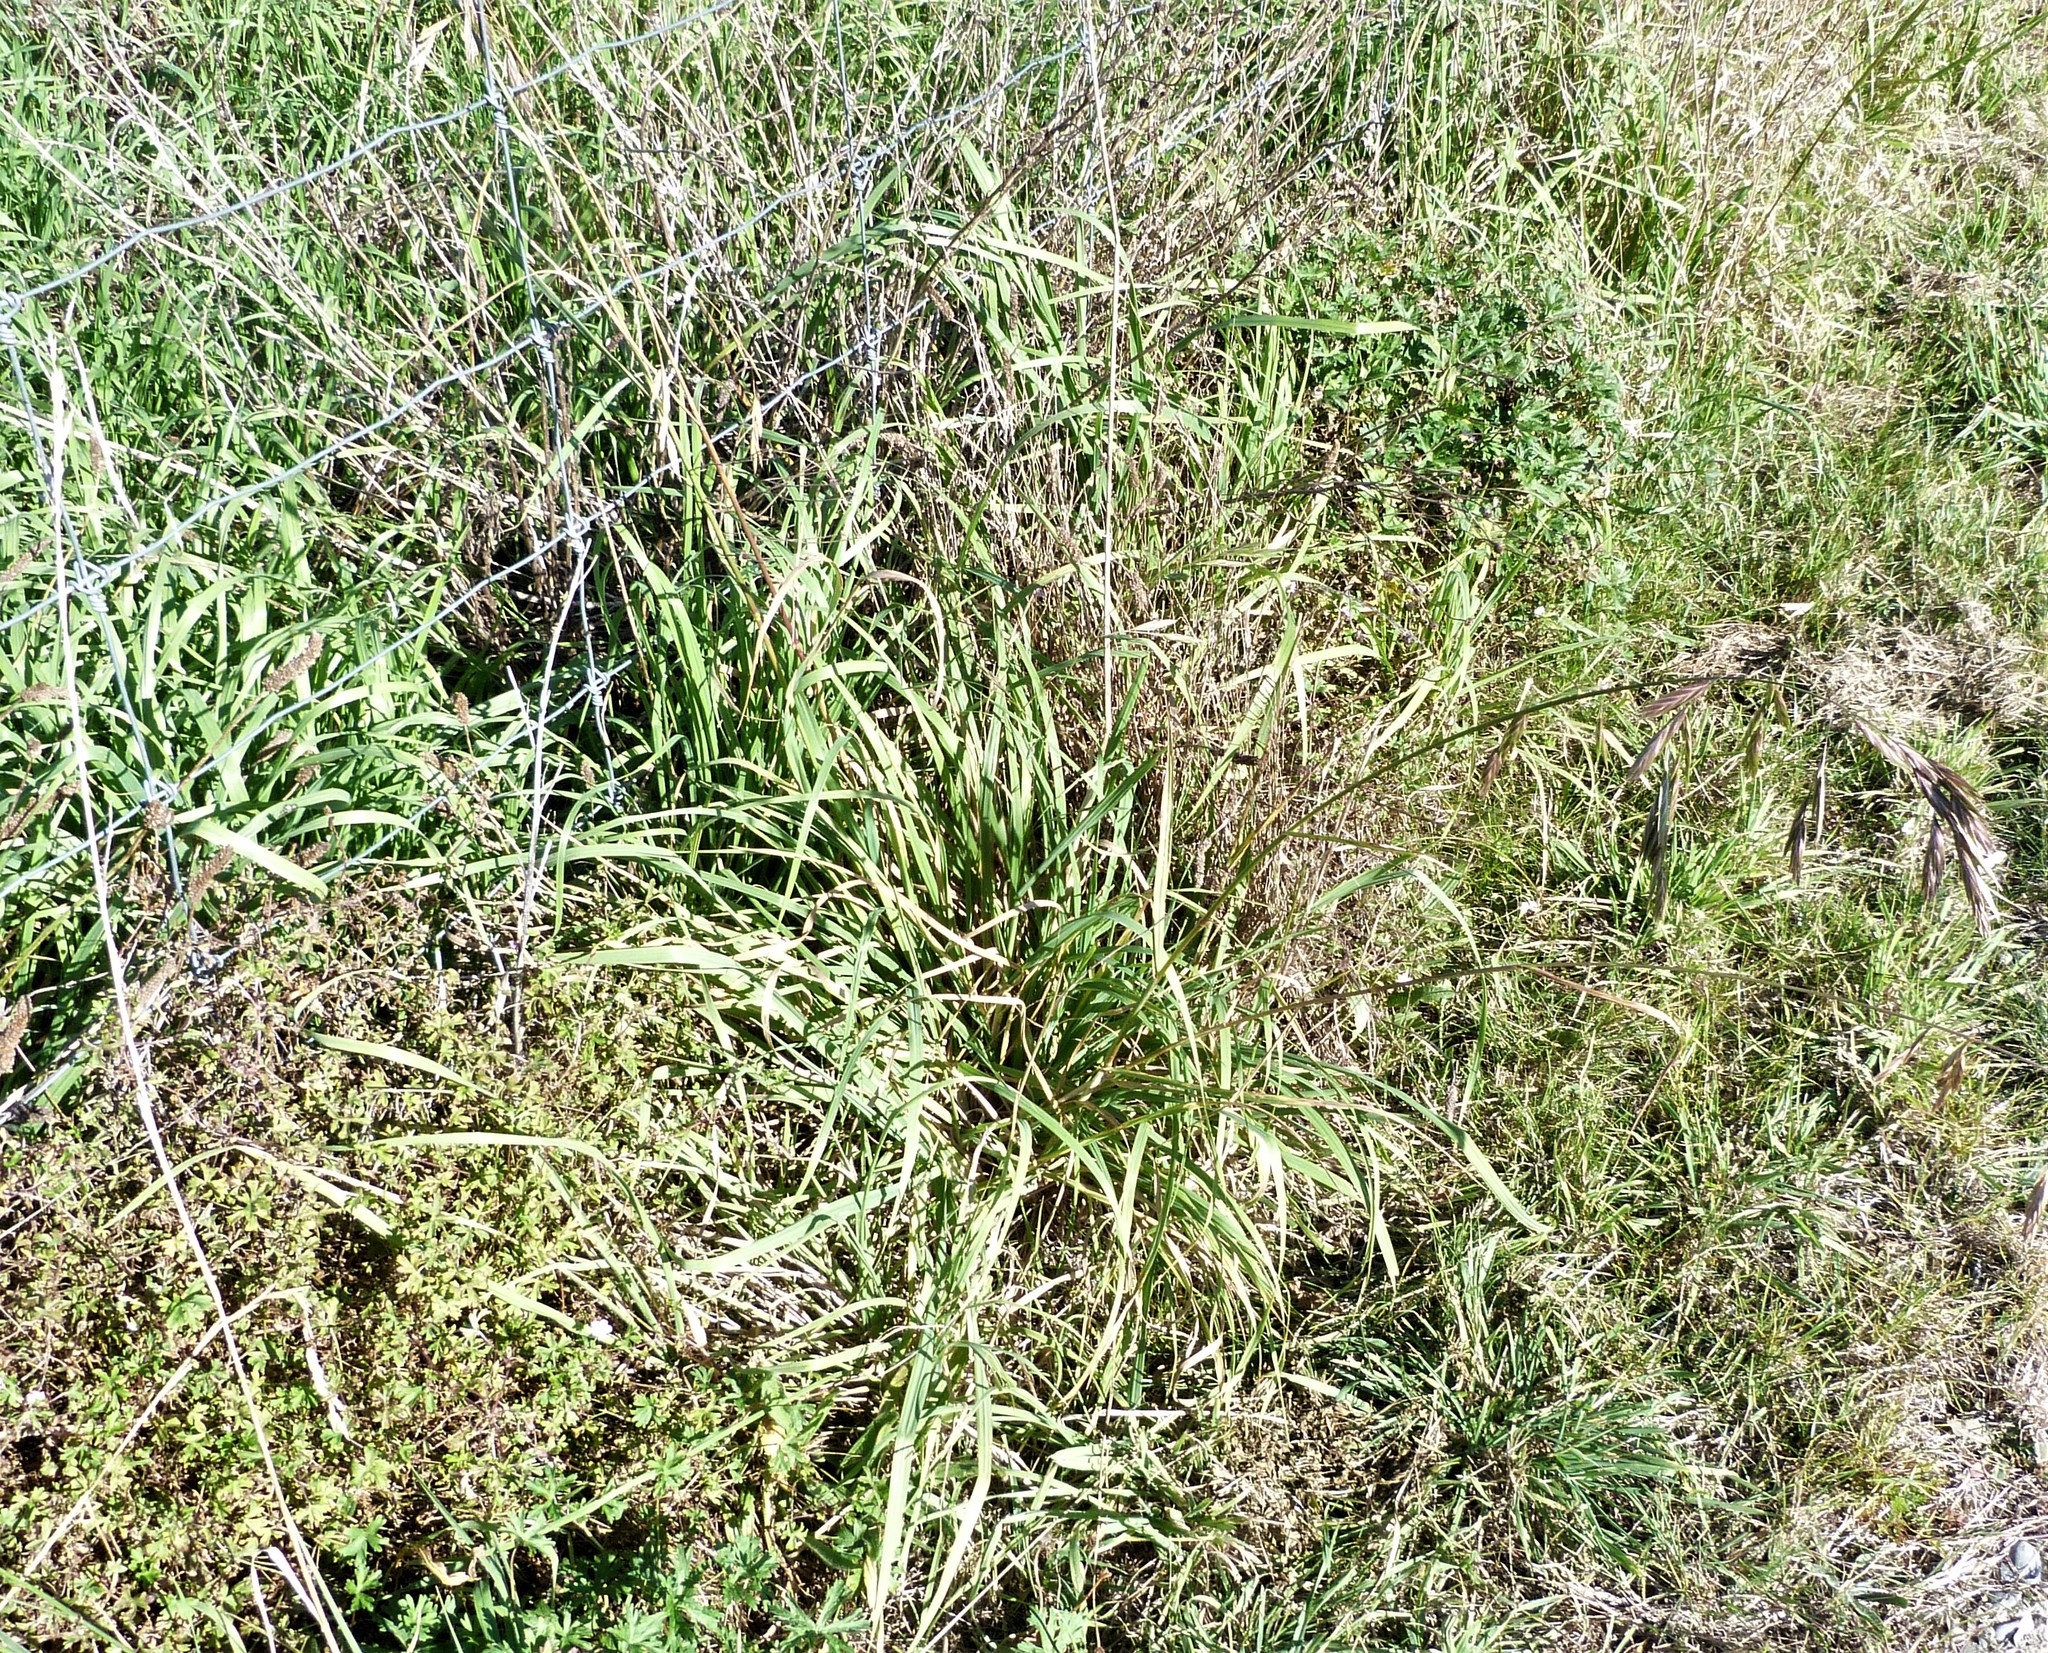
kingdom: Plantae
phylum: Tracheophyta
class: Liliopsida
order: Poales
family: Poaceae
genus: Bromus
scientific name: Bromus catharticus
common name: Rescuegrass
